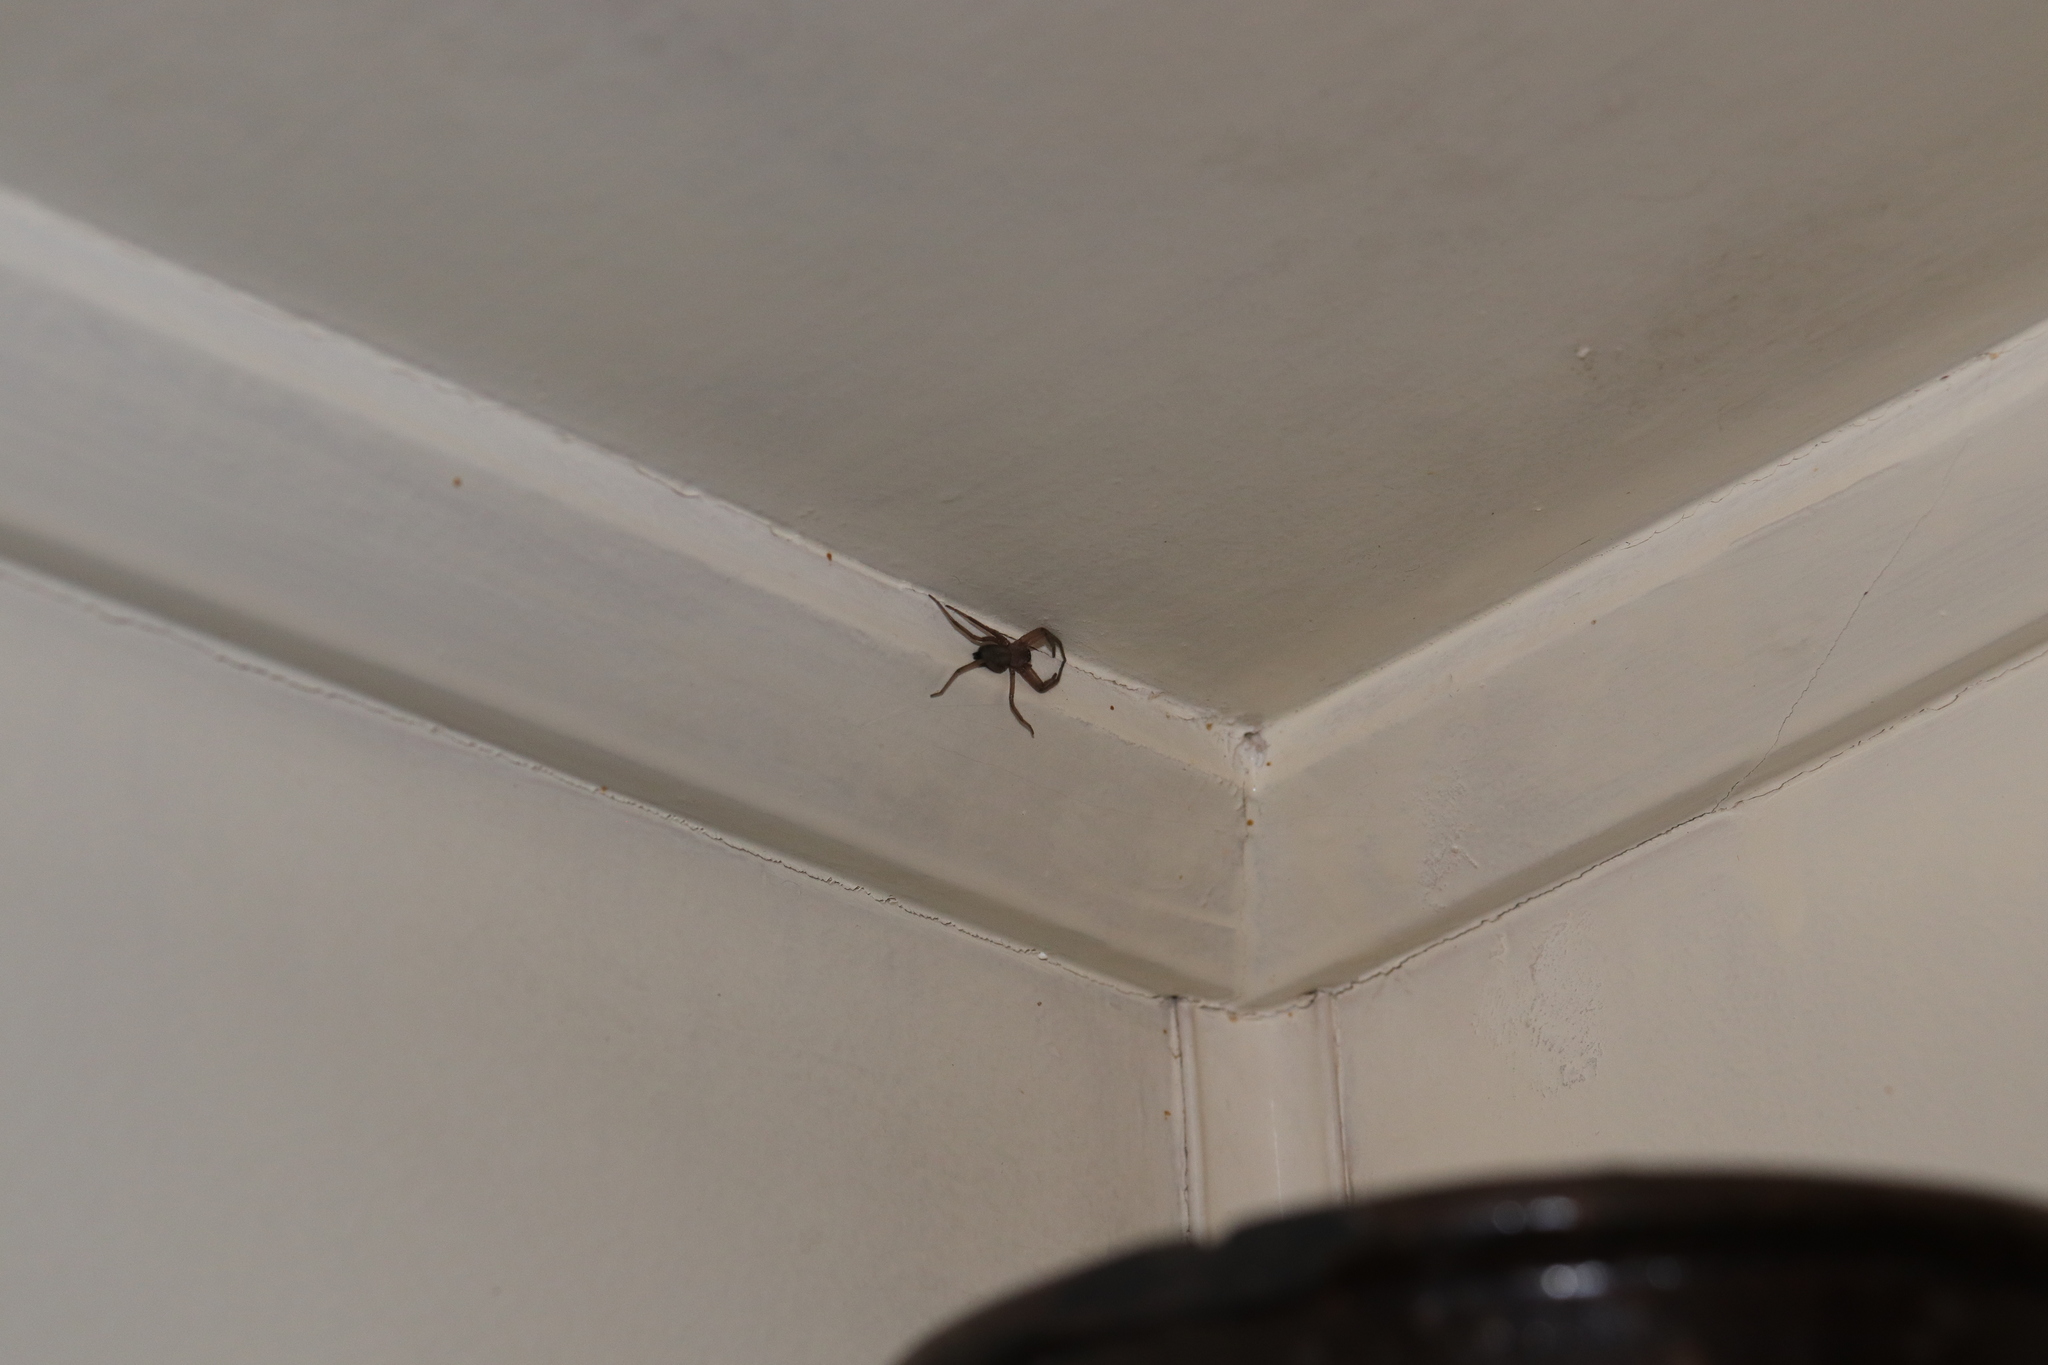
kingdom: Animalia
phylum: Arthropoda
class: Arachnida
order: Araneae
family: Trochanteriidae
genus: Hemicloea
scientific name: Hemicloea rogenhoferi
